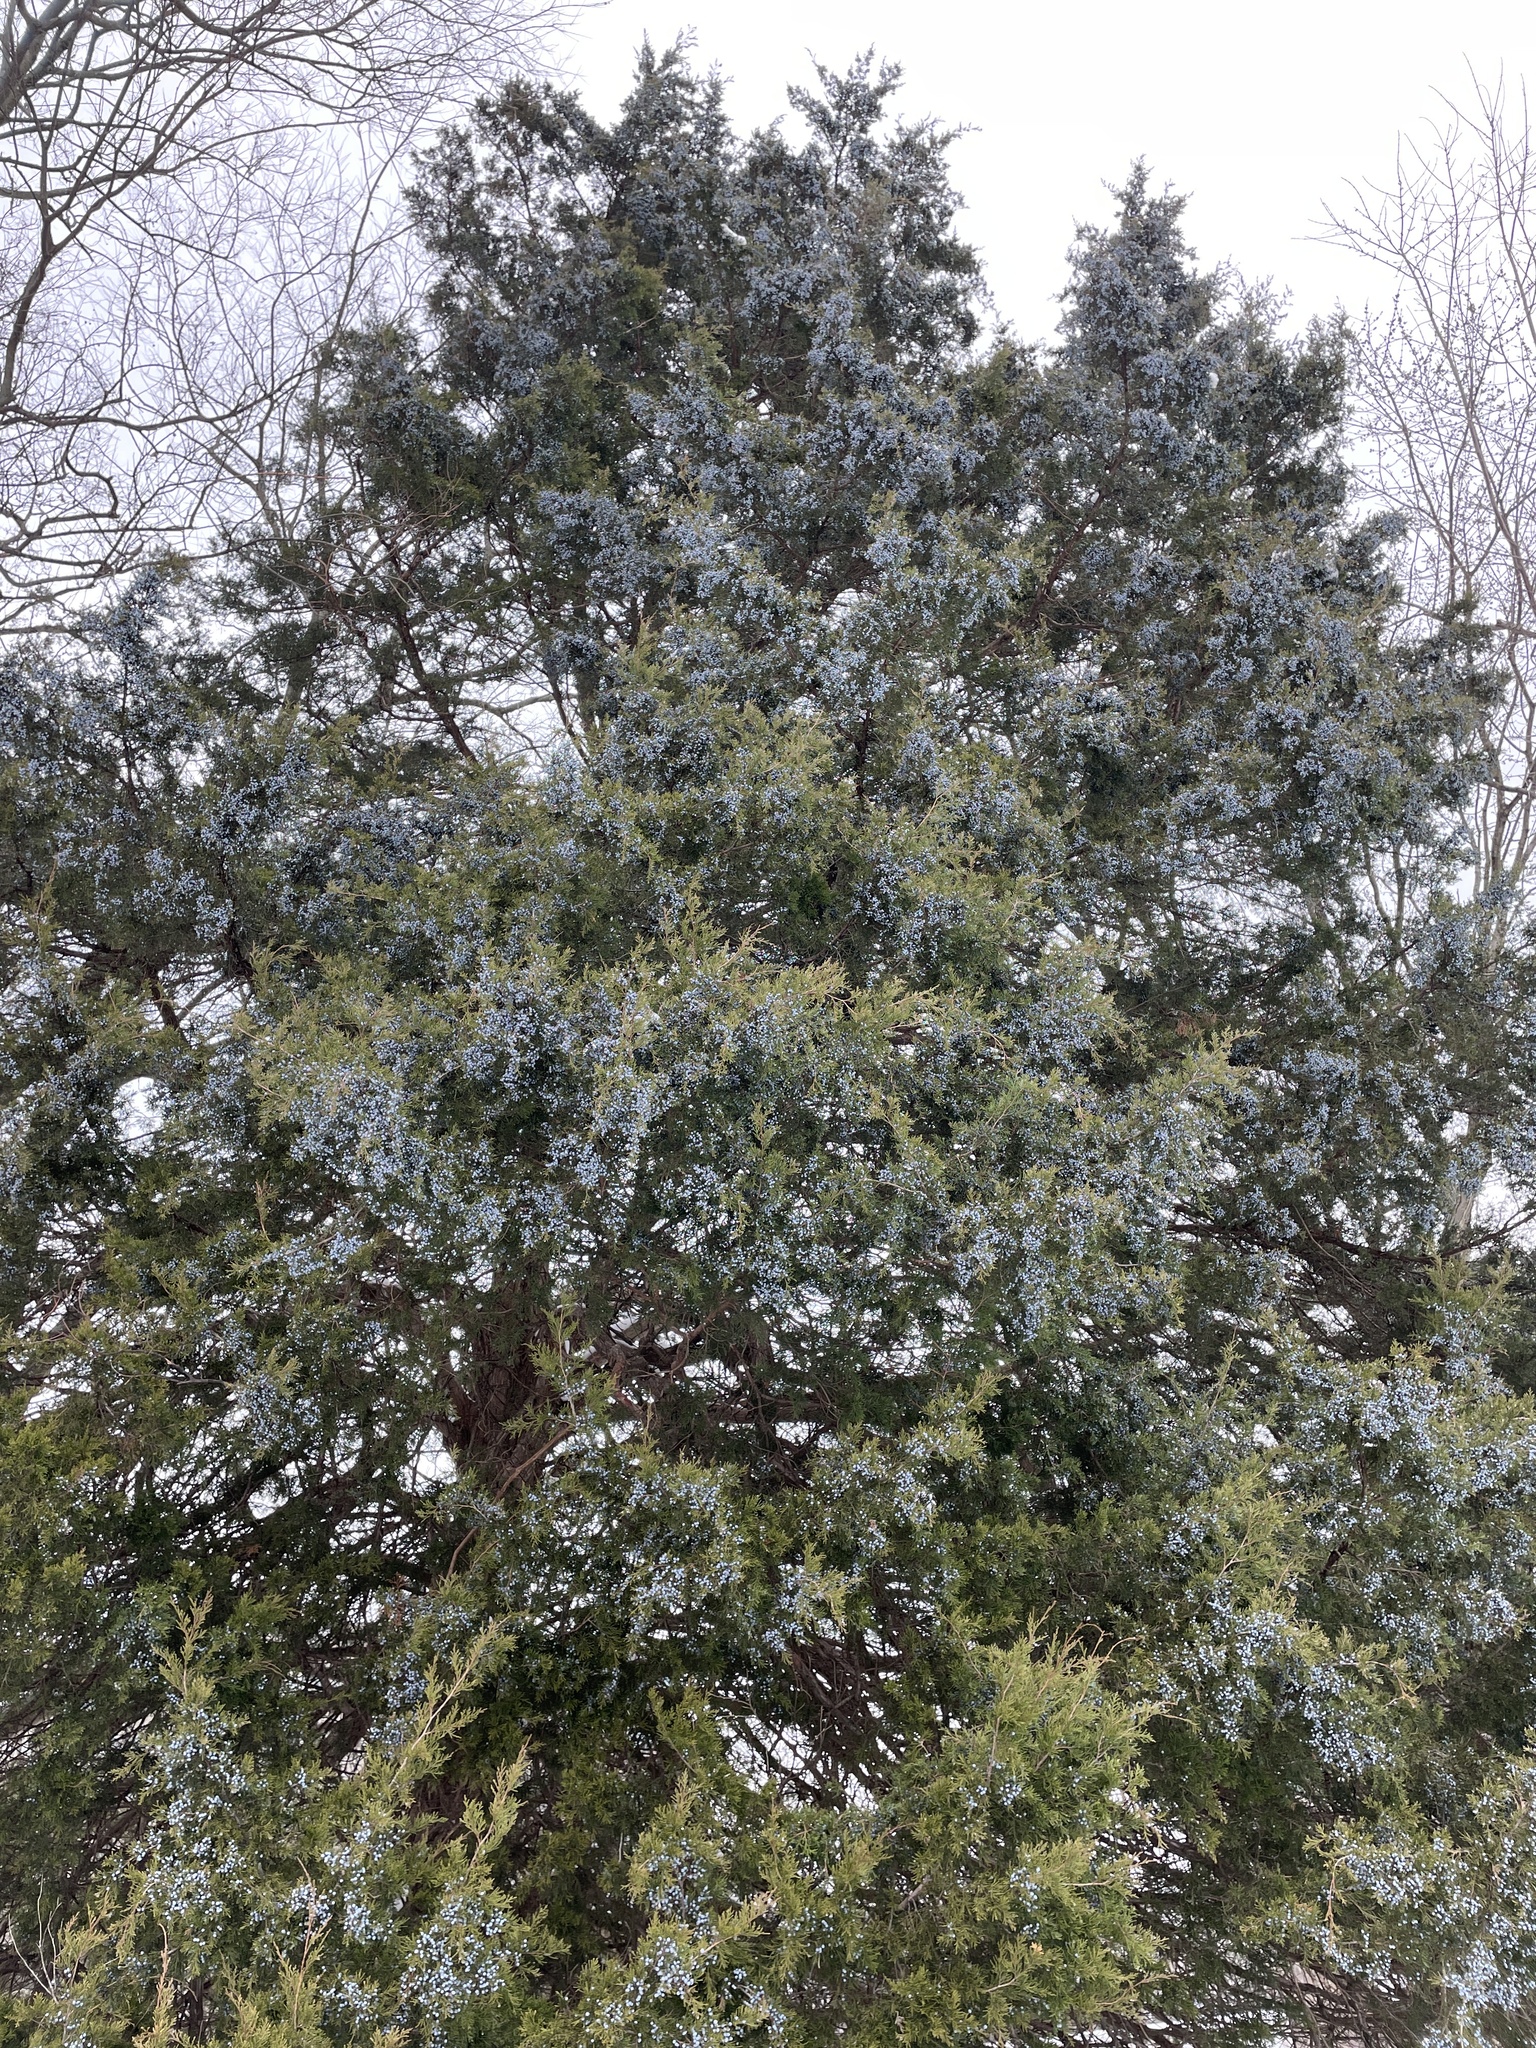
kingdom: Plantae
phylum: Tracheophyta
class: Pinopsida
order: Pinales
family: Cupressaceae
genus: Juniperus
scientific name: Juniperus virginiana
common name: Red juniper
